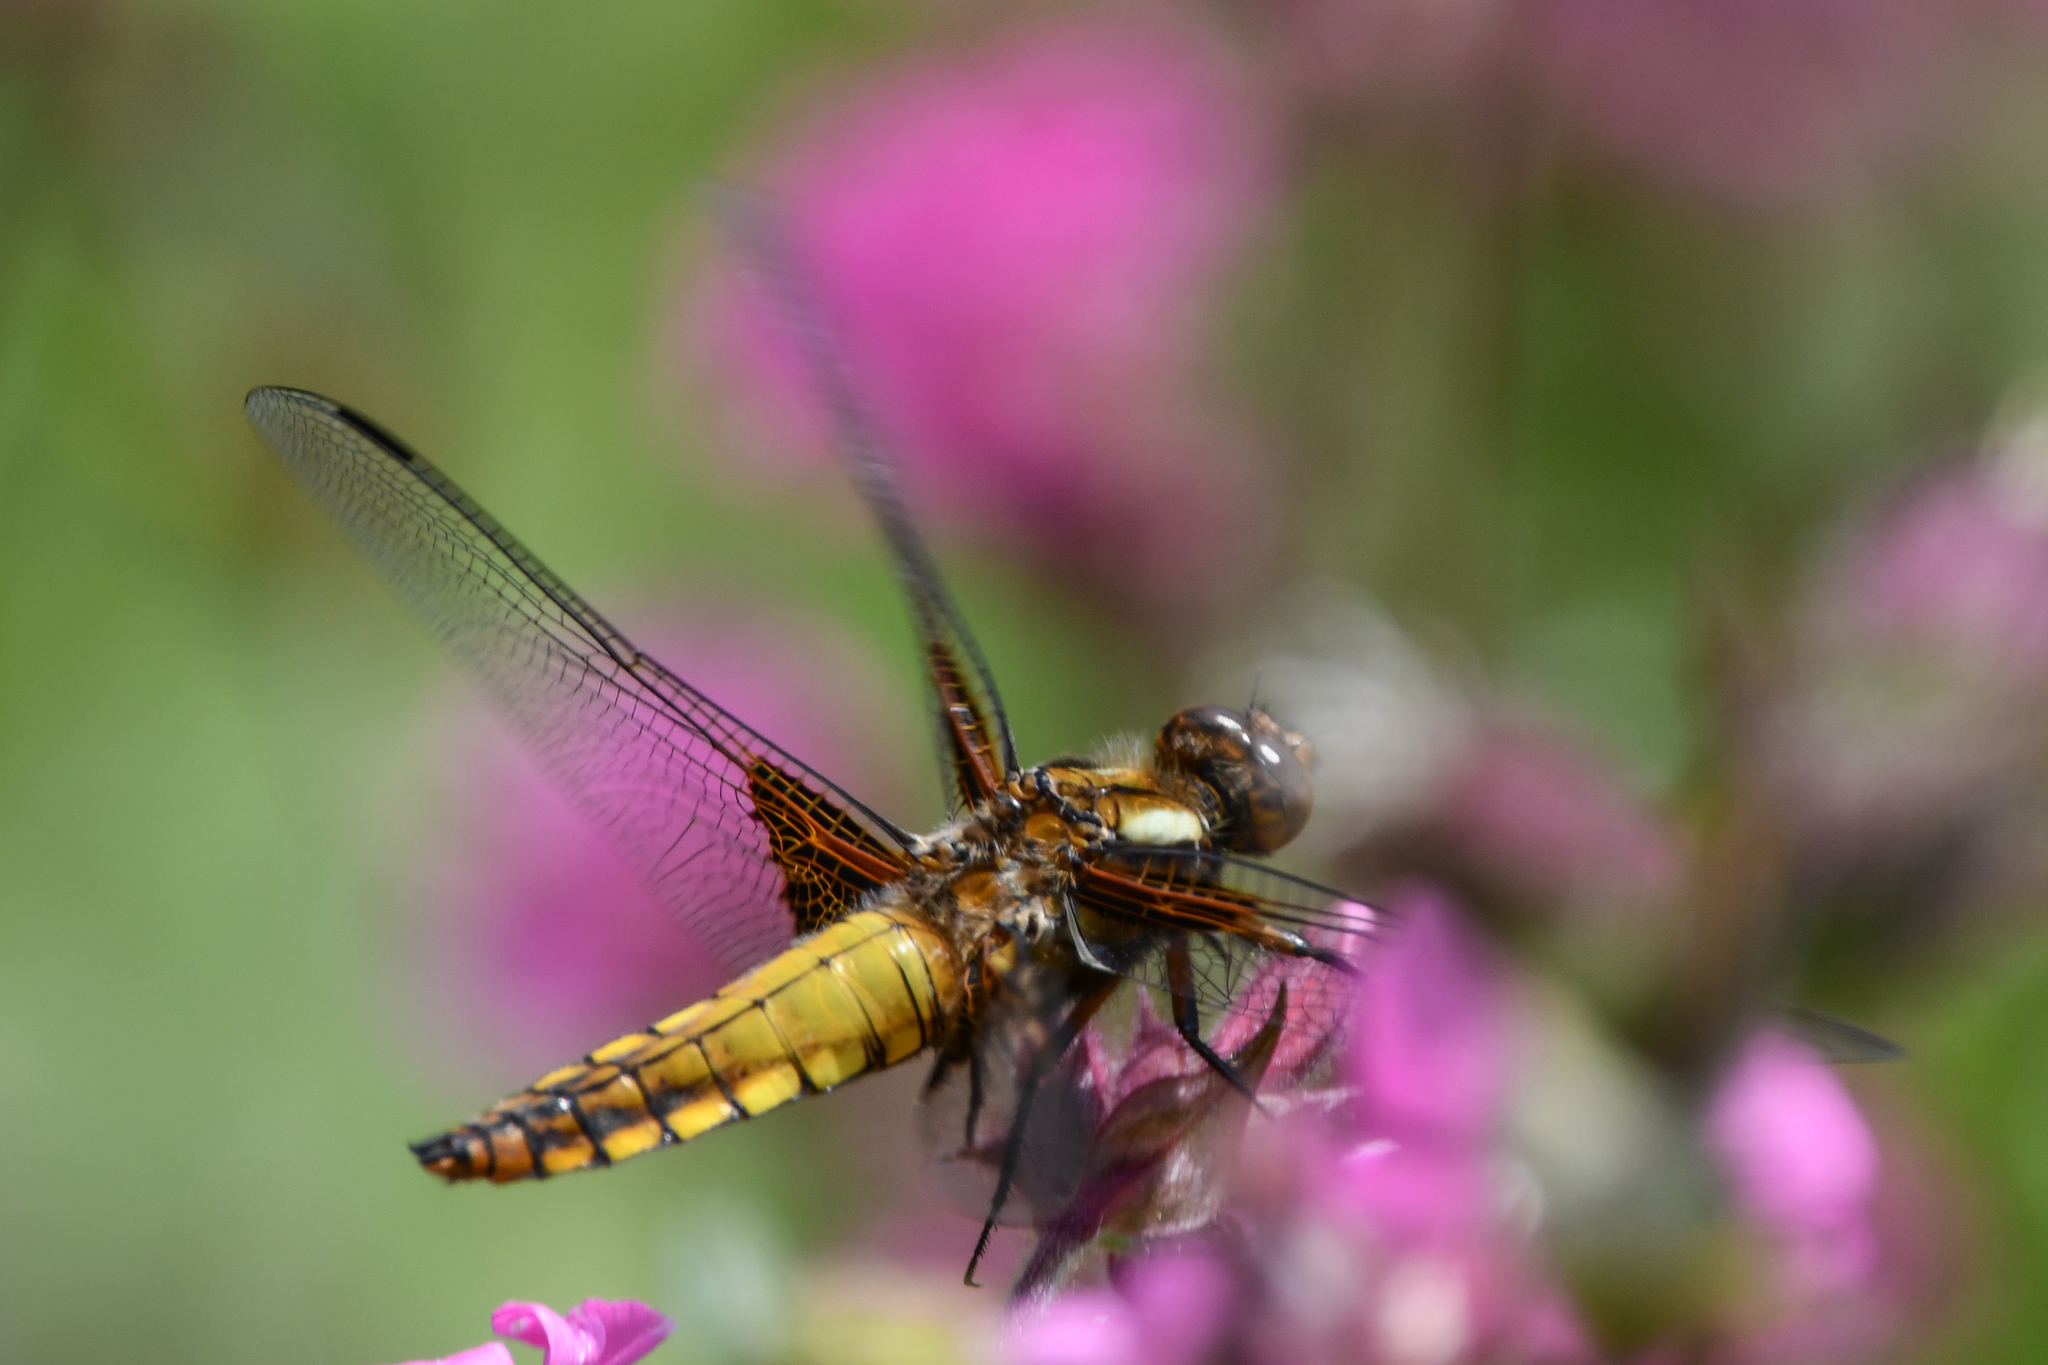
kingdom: Animalia
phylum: Arthropoda
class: Insecta
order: Odonata
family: Libellulidae
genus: Libellula
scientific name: Libellula depressa
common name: Broad-bodied chaser
